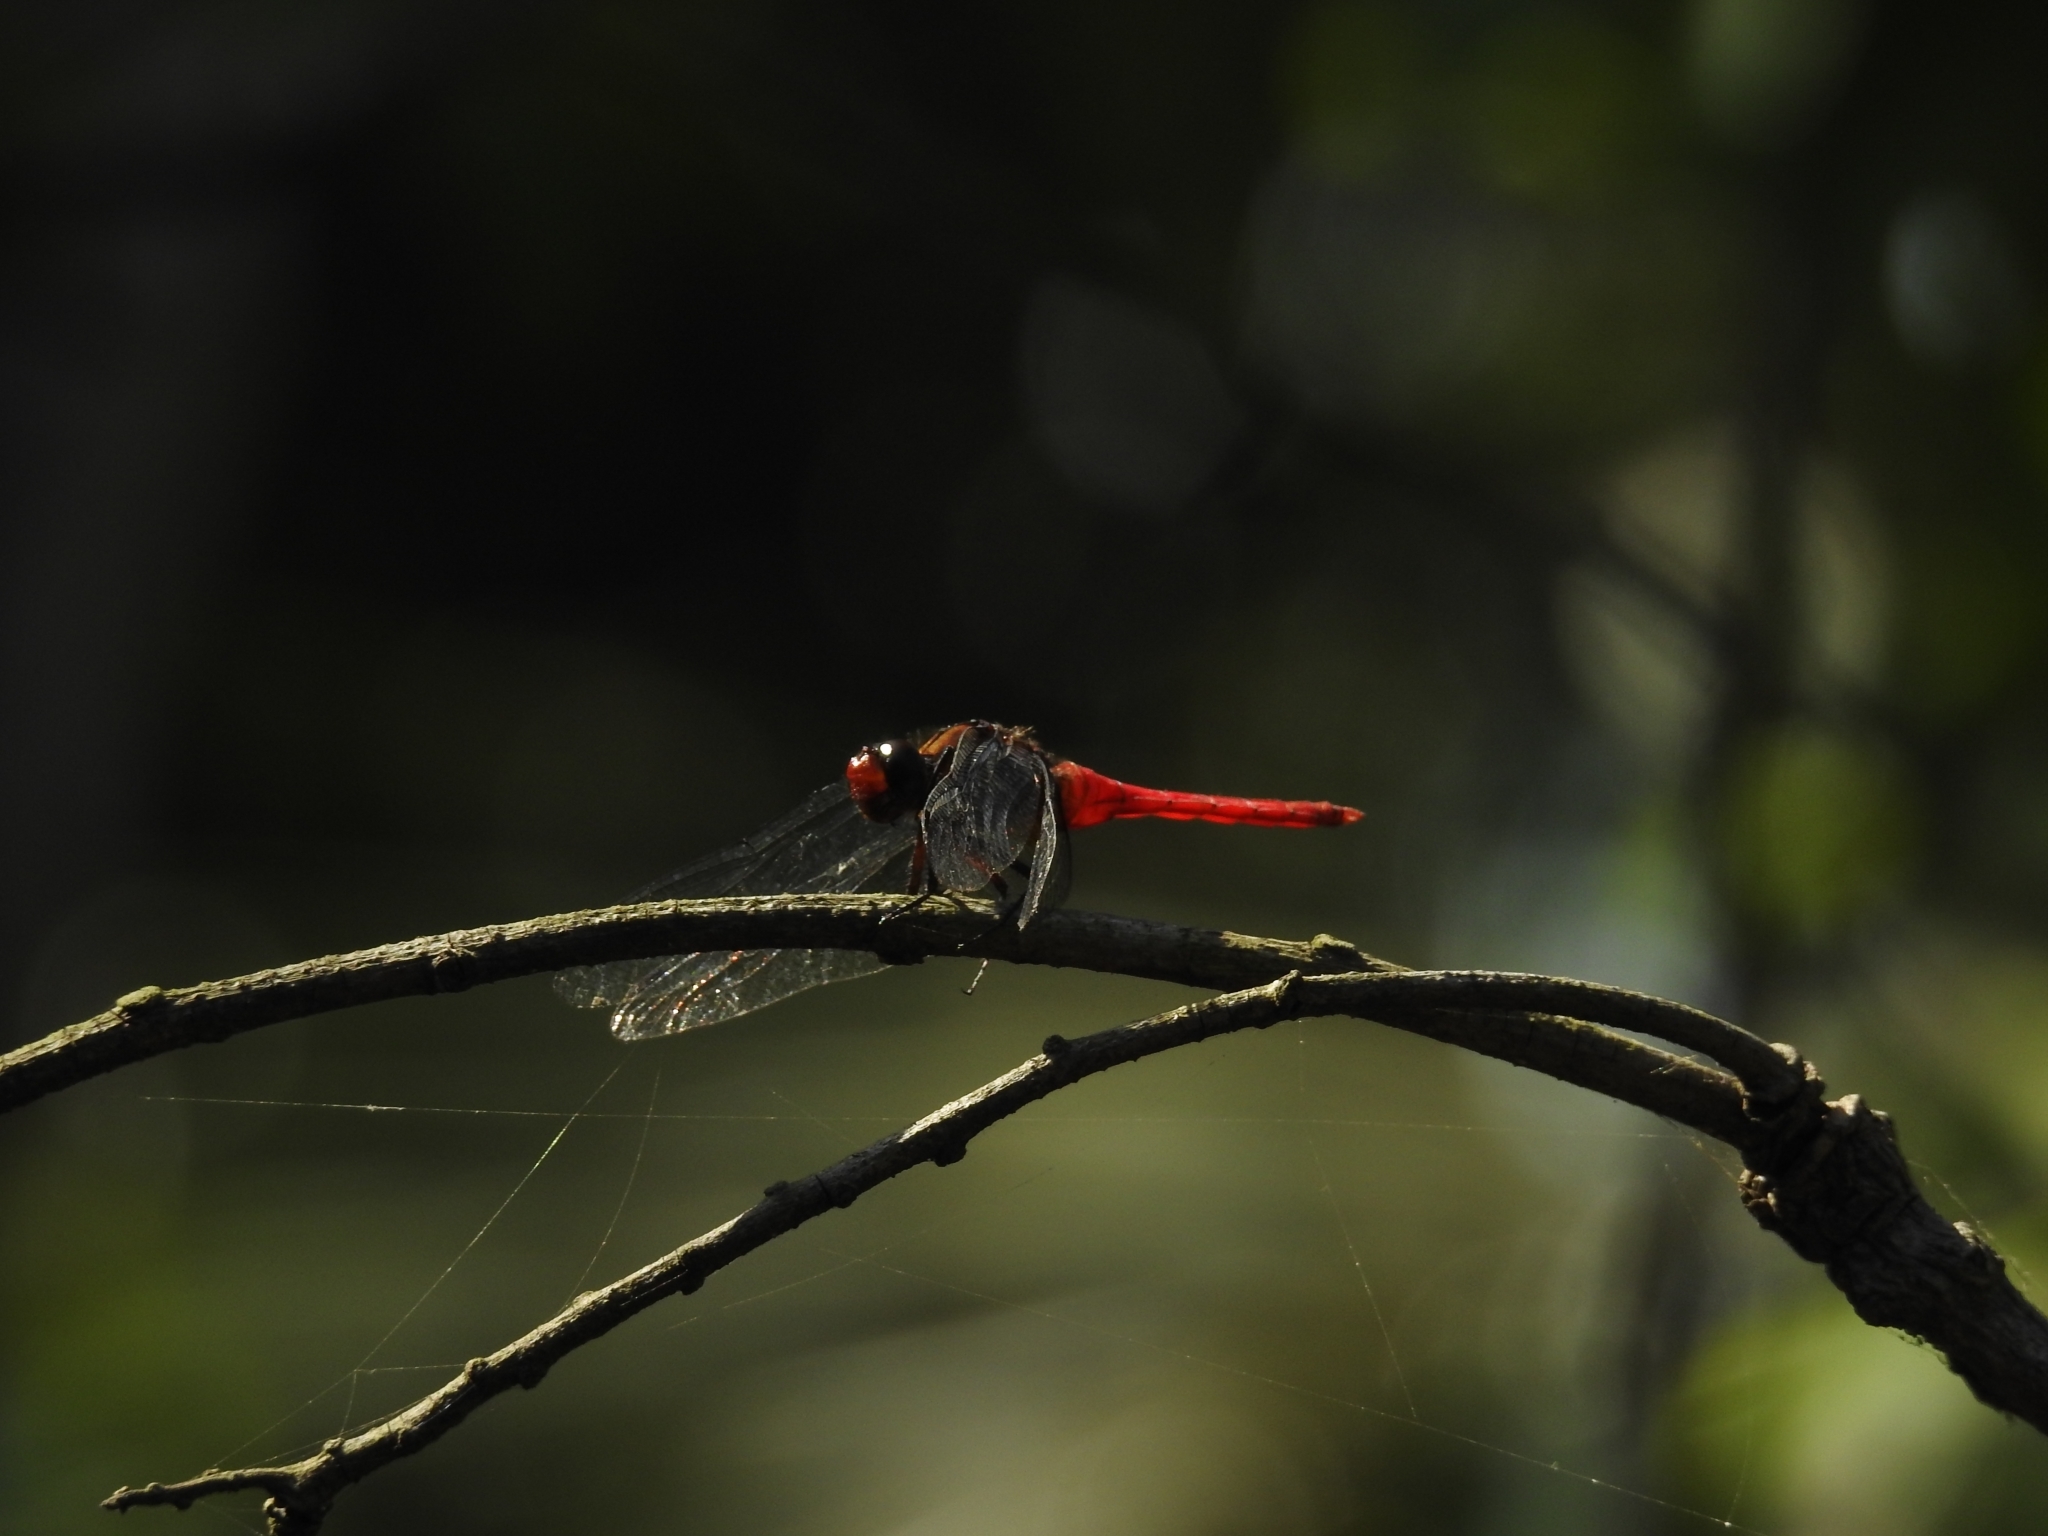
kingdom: Animalia
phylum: Arthropoda
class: Insecta
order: Odonata
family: Libellulidae
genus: Orthetrum
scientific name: Orthetrum chrysis
